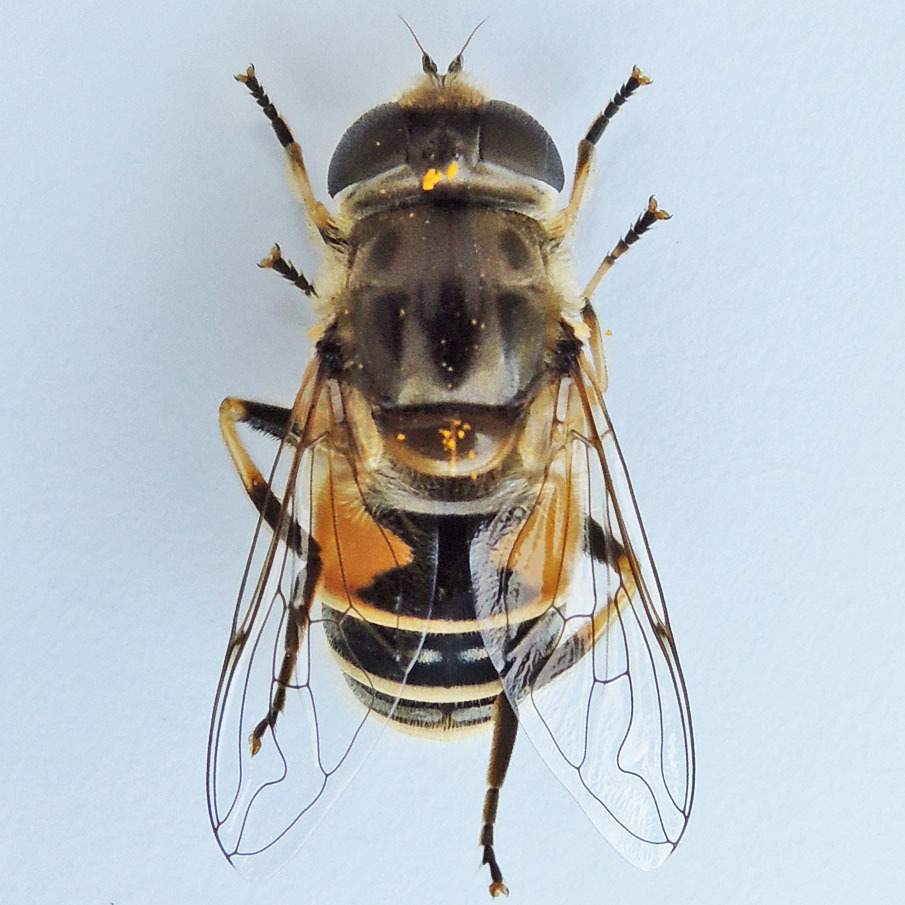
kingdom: Animalia
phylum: Arthropoda
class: Insecta
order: Diptera
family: Syrphidae
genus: Eristalis
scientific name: Eristalis arbustorum
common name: Hover fly
